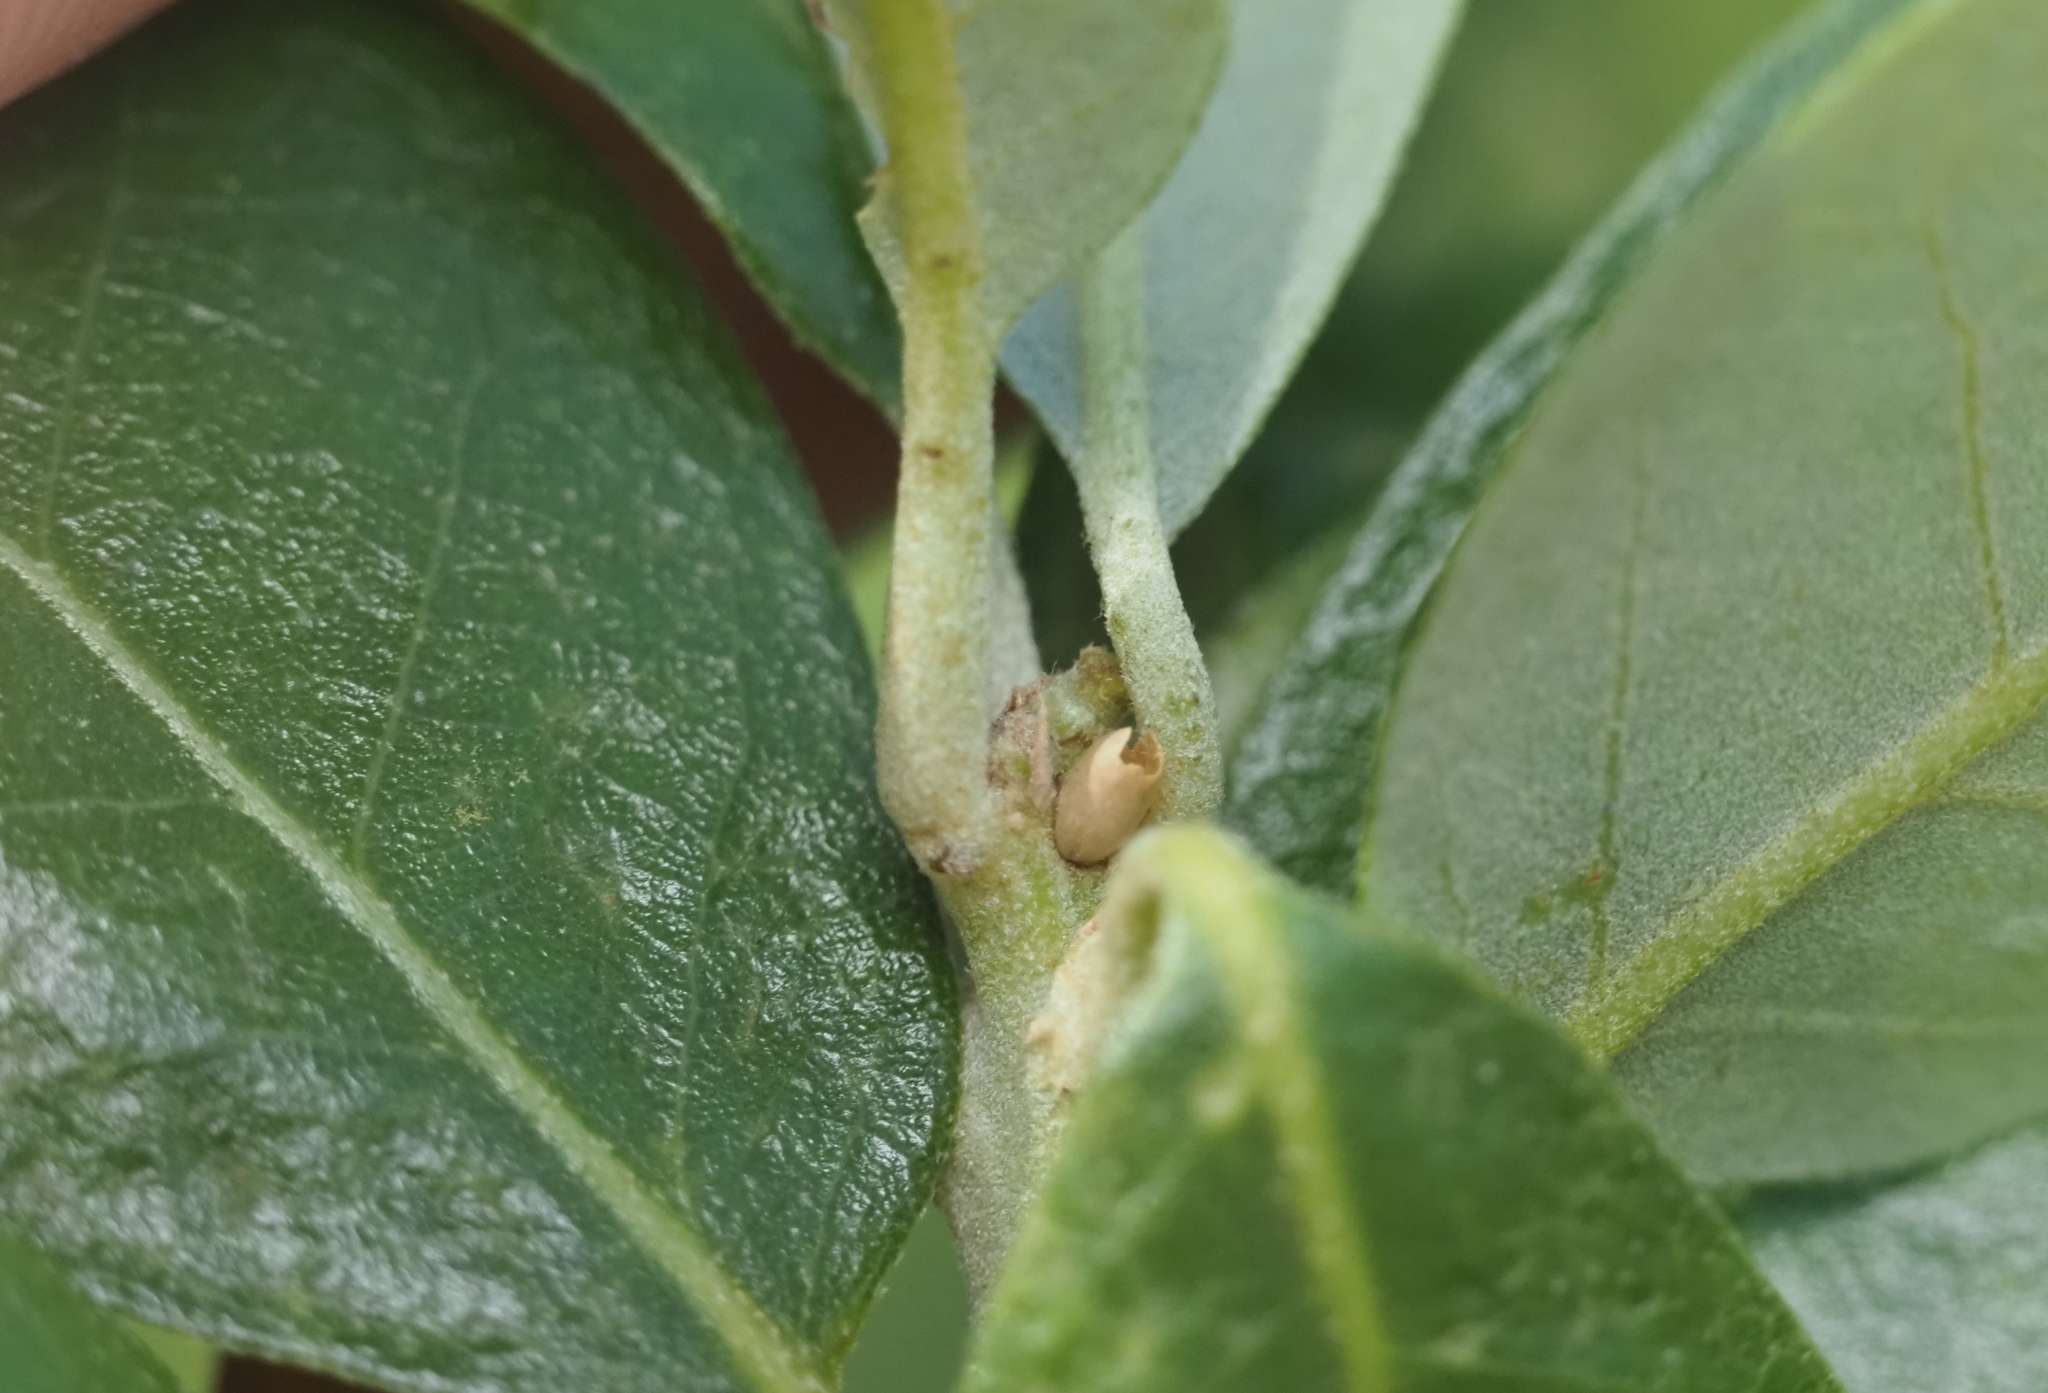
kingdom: Animalia
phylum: Arthropoda
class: Insecta
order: Hymenoptera
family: Cynipidae
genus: Disholcaspis
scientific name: Disholcaspis
